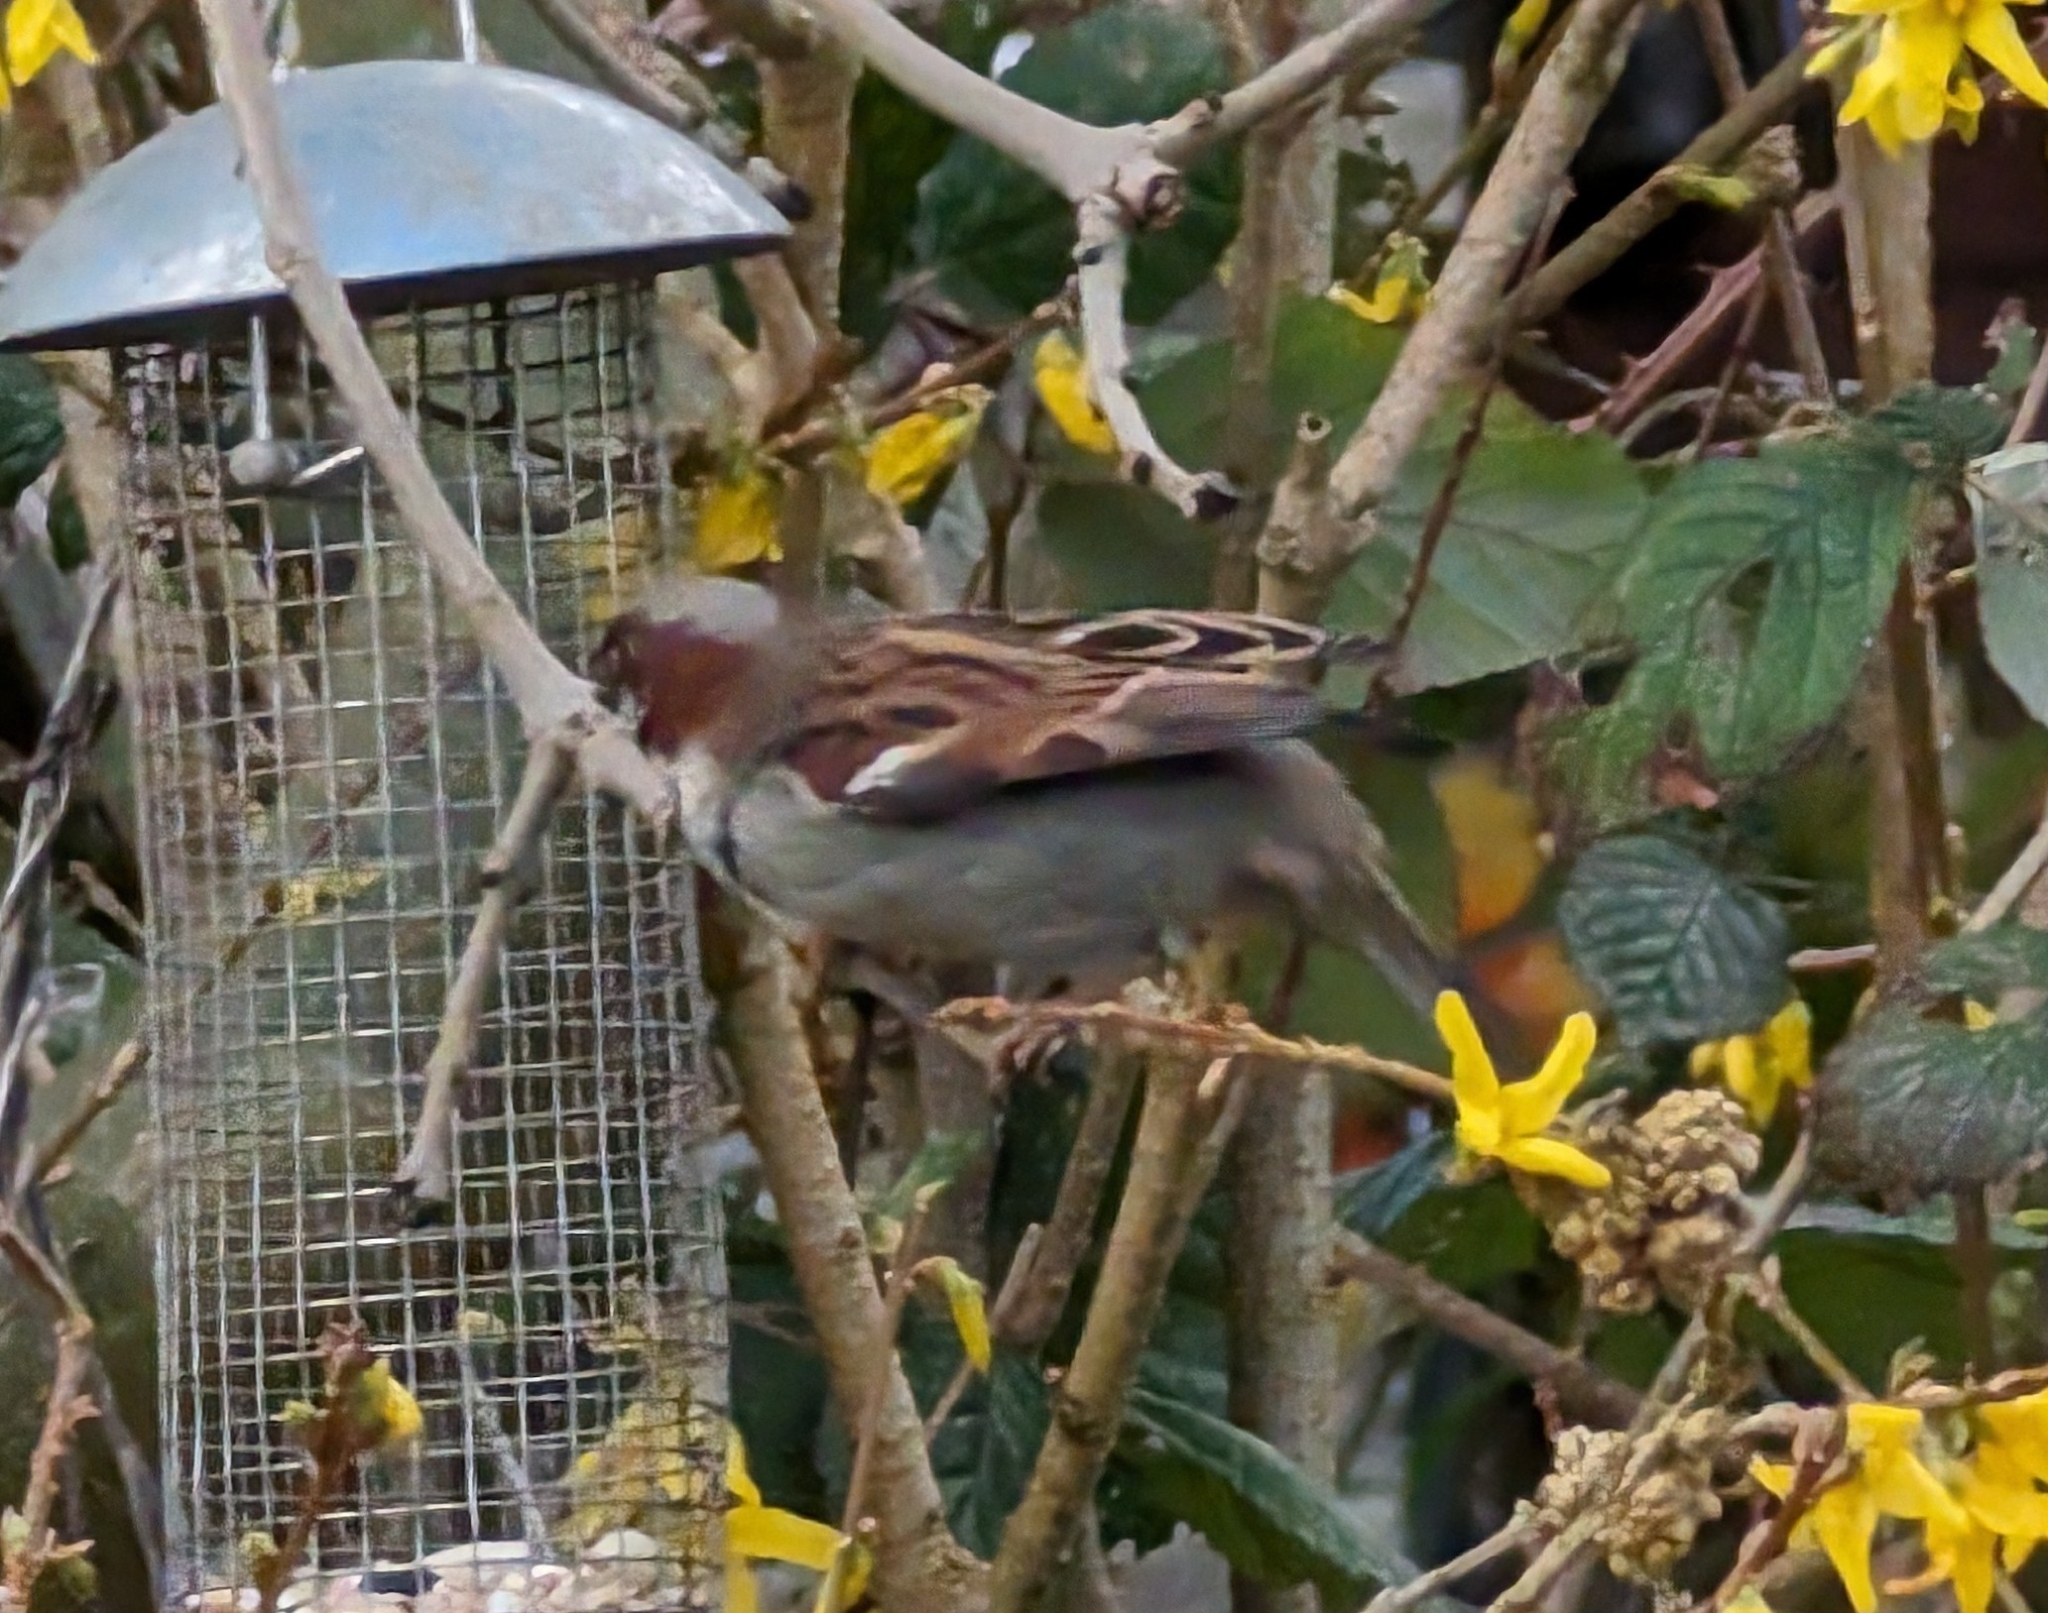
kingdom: Animalia
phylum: Chordata
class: Aves
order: Passeriformes
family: Passeridae
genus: Passer
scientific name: Passer domesticus
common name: House sparrow
